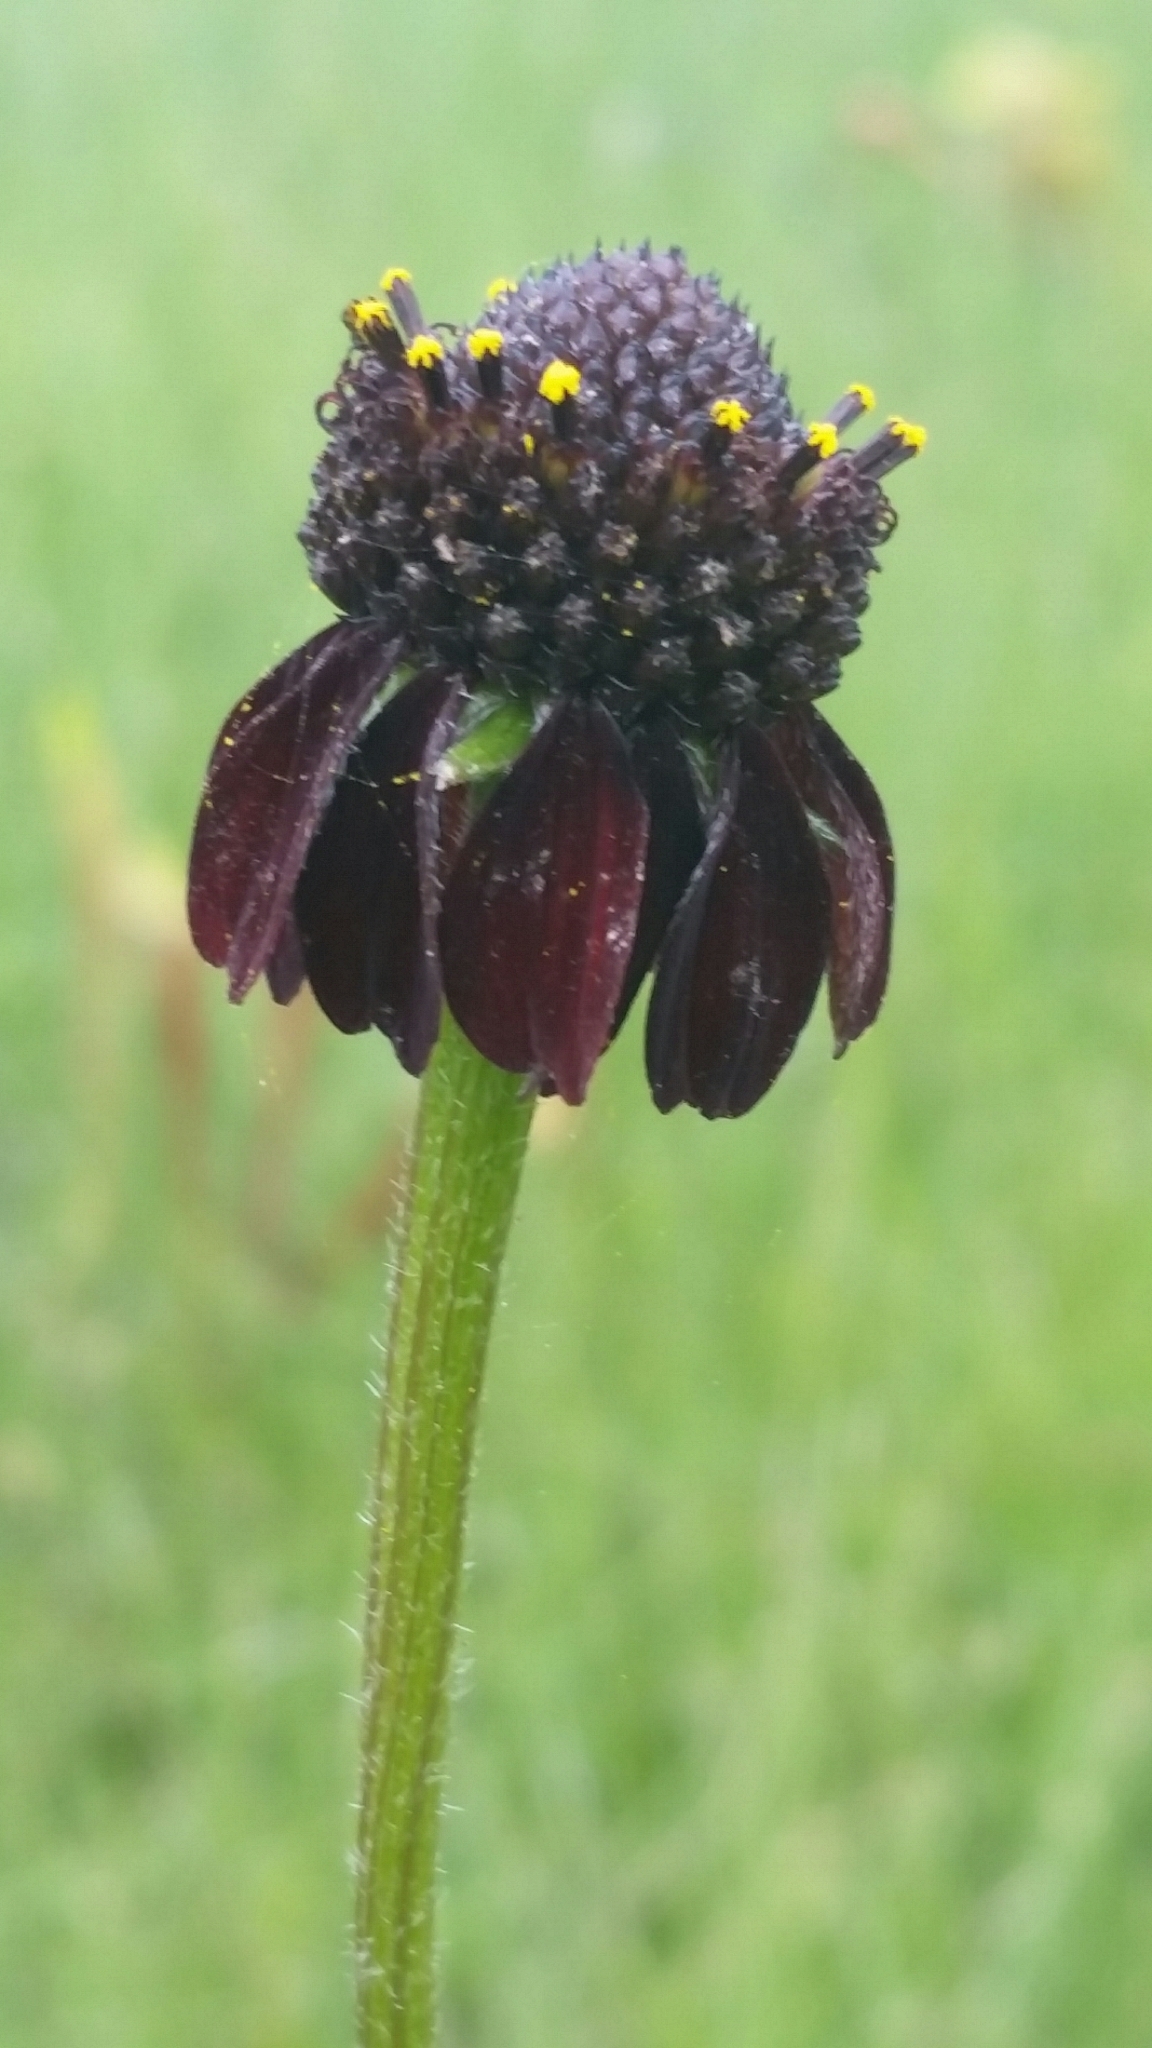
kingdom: Plantae
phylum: Tracheophyta
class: Magnoliopsida
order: Asterales
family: Asteraceae
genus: Rudbeckia
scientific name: Rudbeckia graminifolia
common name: Grass-leaf coneflower
